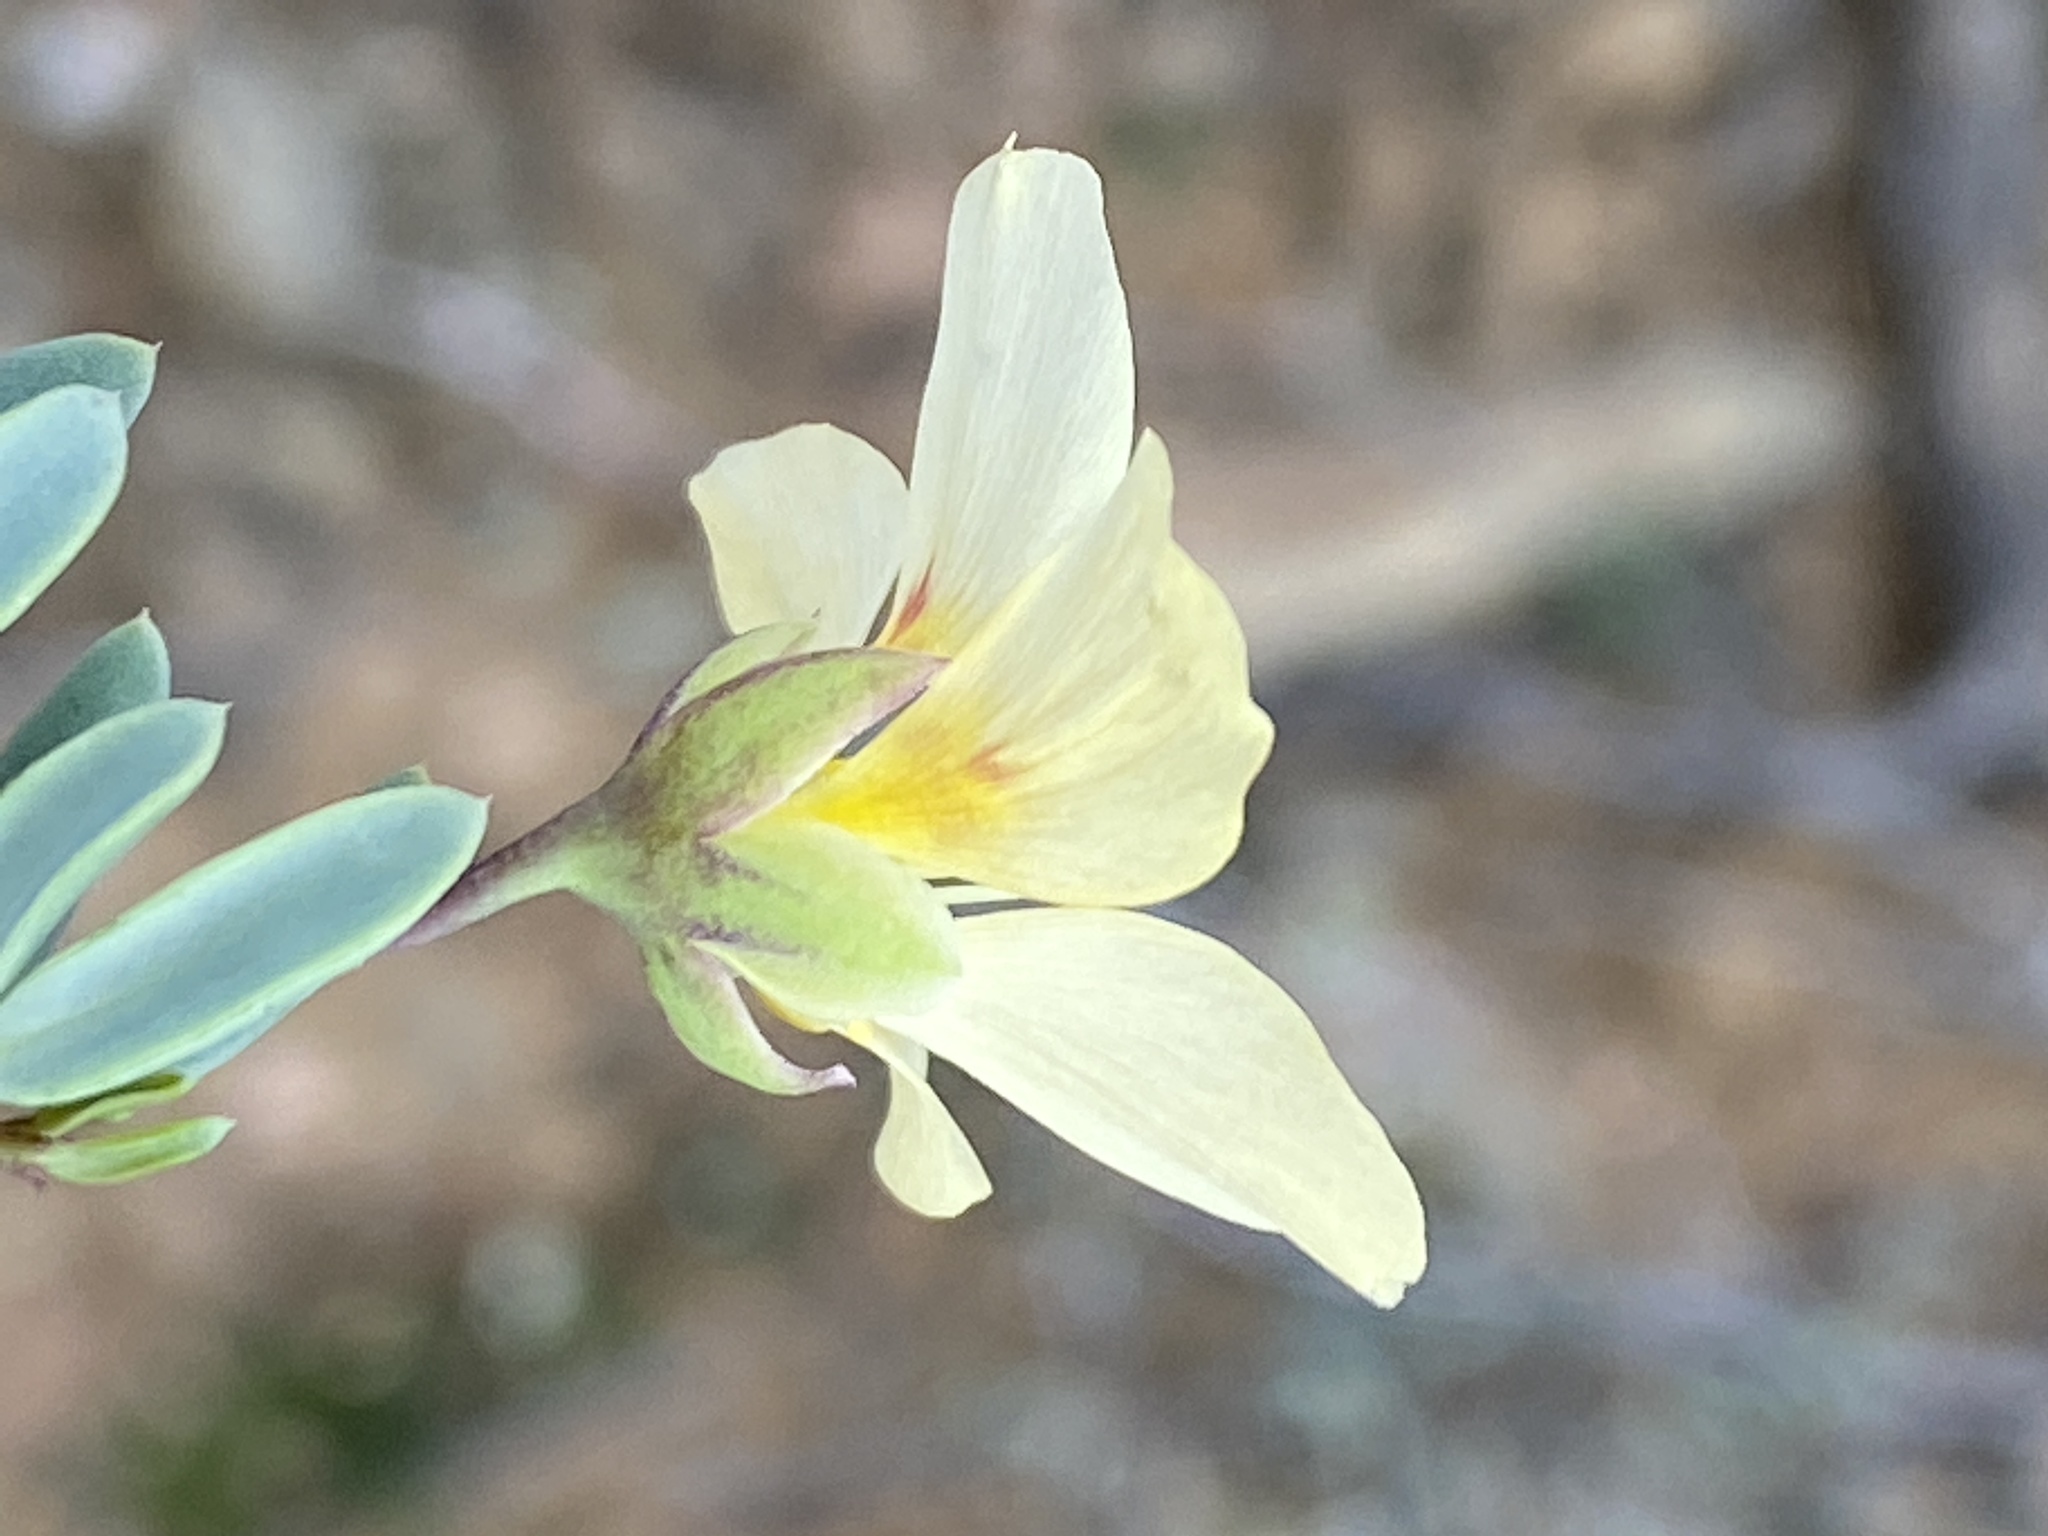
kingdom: Plantae
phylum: Tracheophyta
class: Magnoliopsida
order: Zygophyllales
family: Zygophyllaceae
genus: Roepera
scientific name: Roepera debilis
